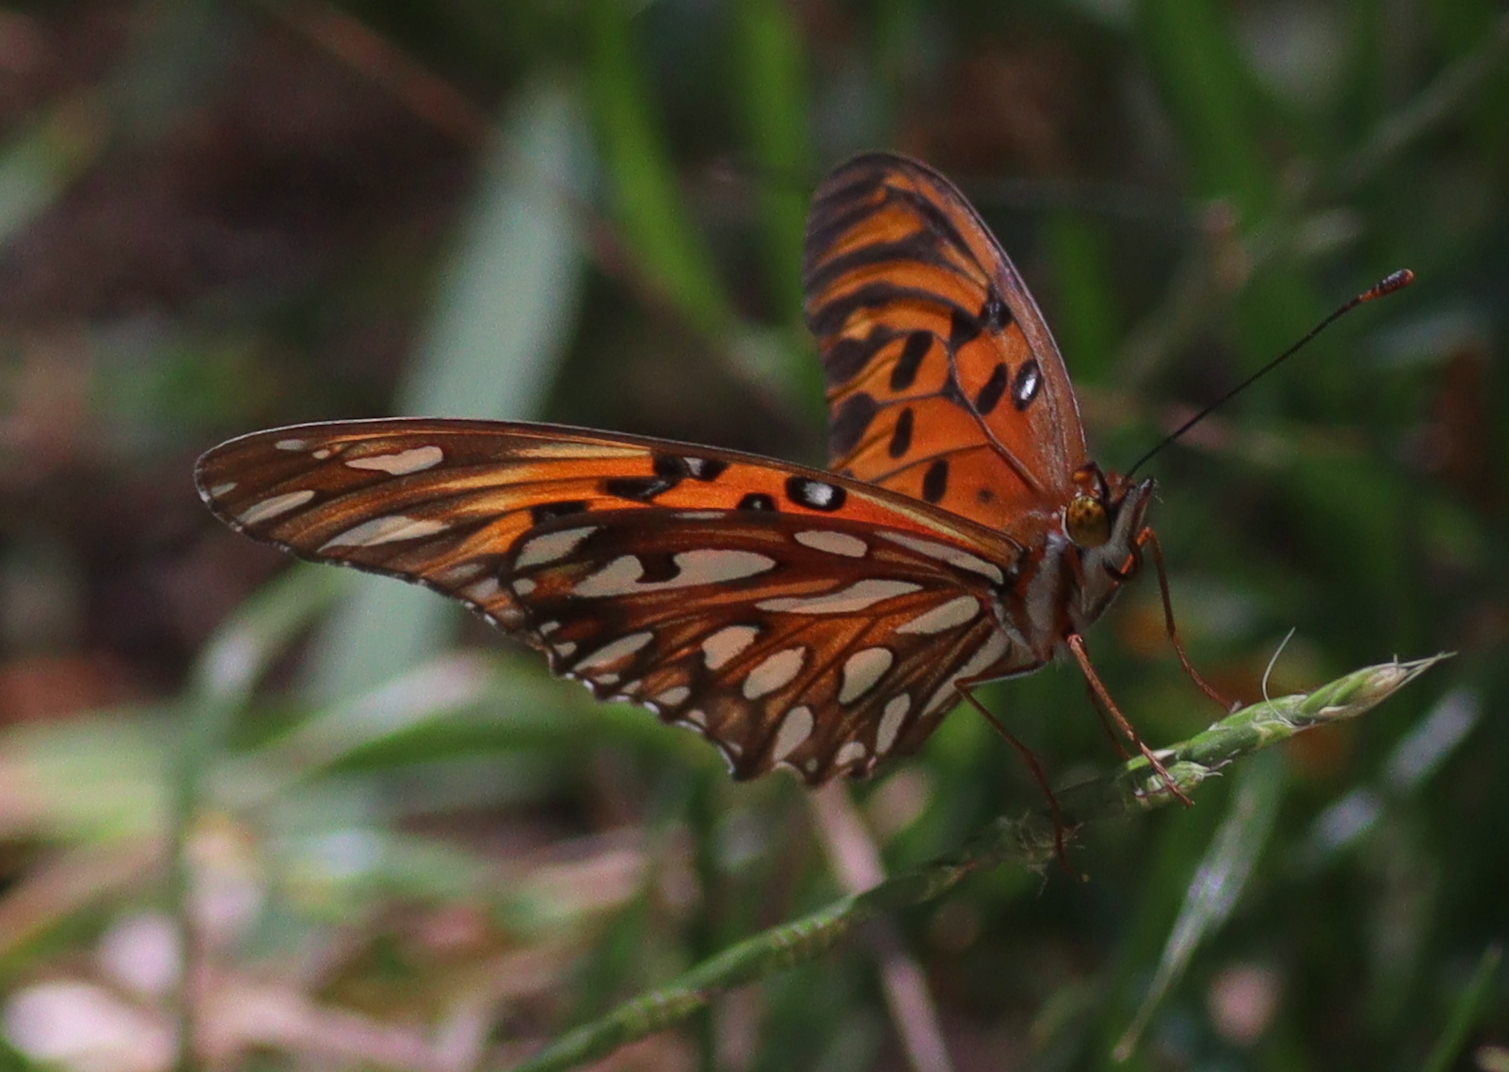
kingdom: Animalia
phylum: Arthropoda
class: Insecta
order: Lepidoptera
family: Nymphalidae
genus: Dione
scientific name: Dione vanillae
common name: Gulf fritillary
